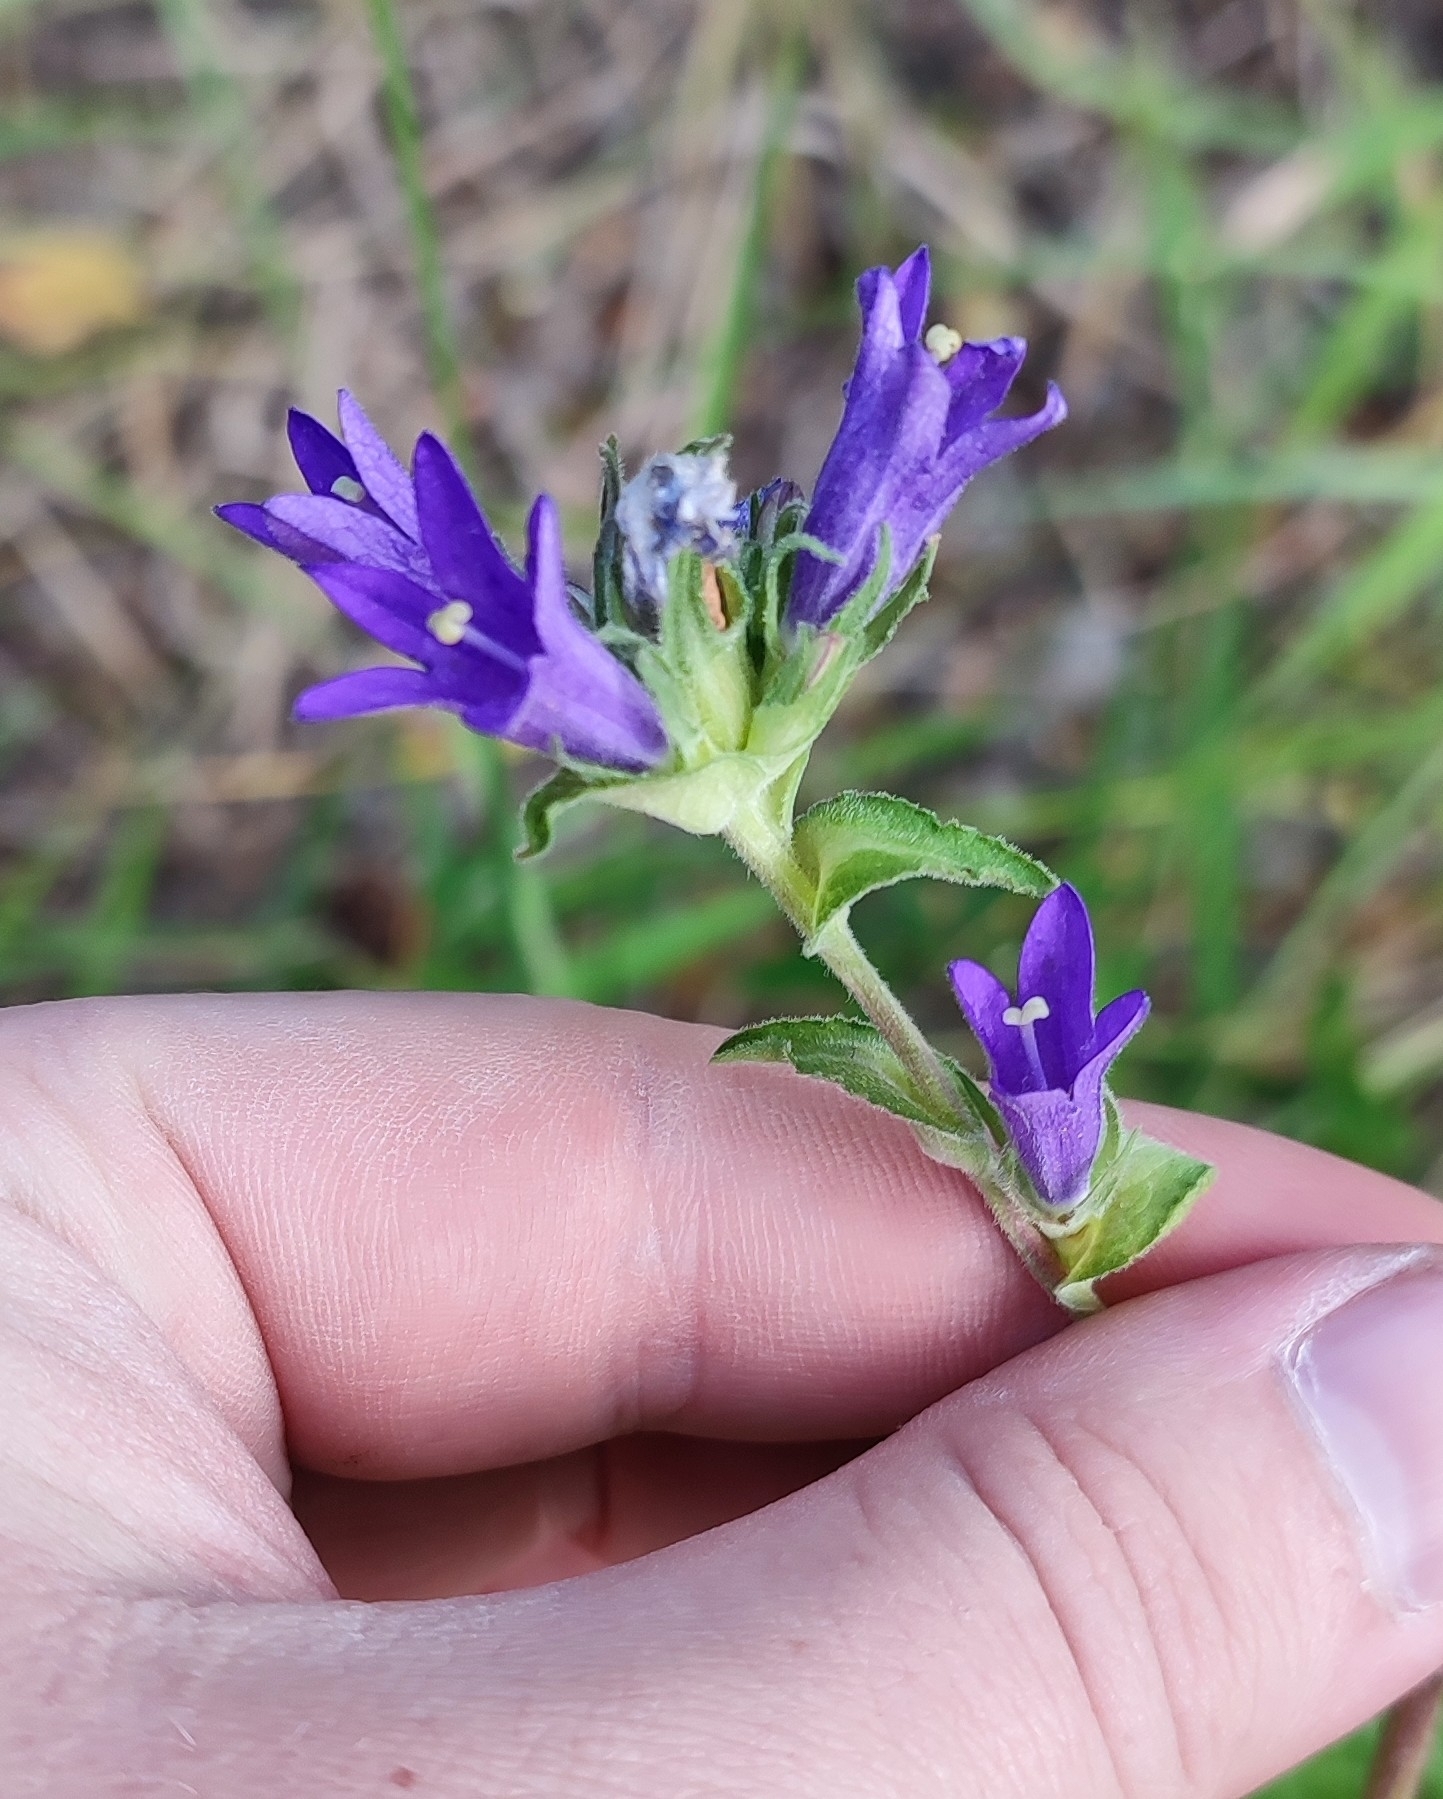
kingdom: Plantae
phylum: Tracheophyta
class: Magnoliopsida
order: Asterales
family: Campanulaceae
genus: Campanula
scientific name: Campanula glomerata
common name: Clustered bellflower
